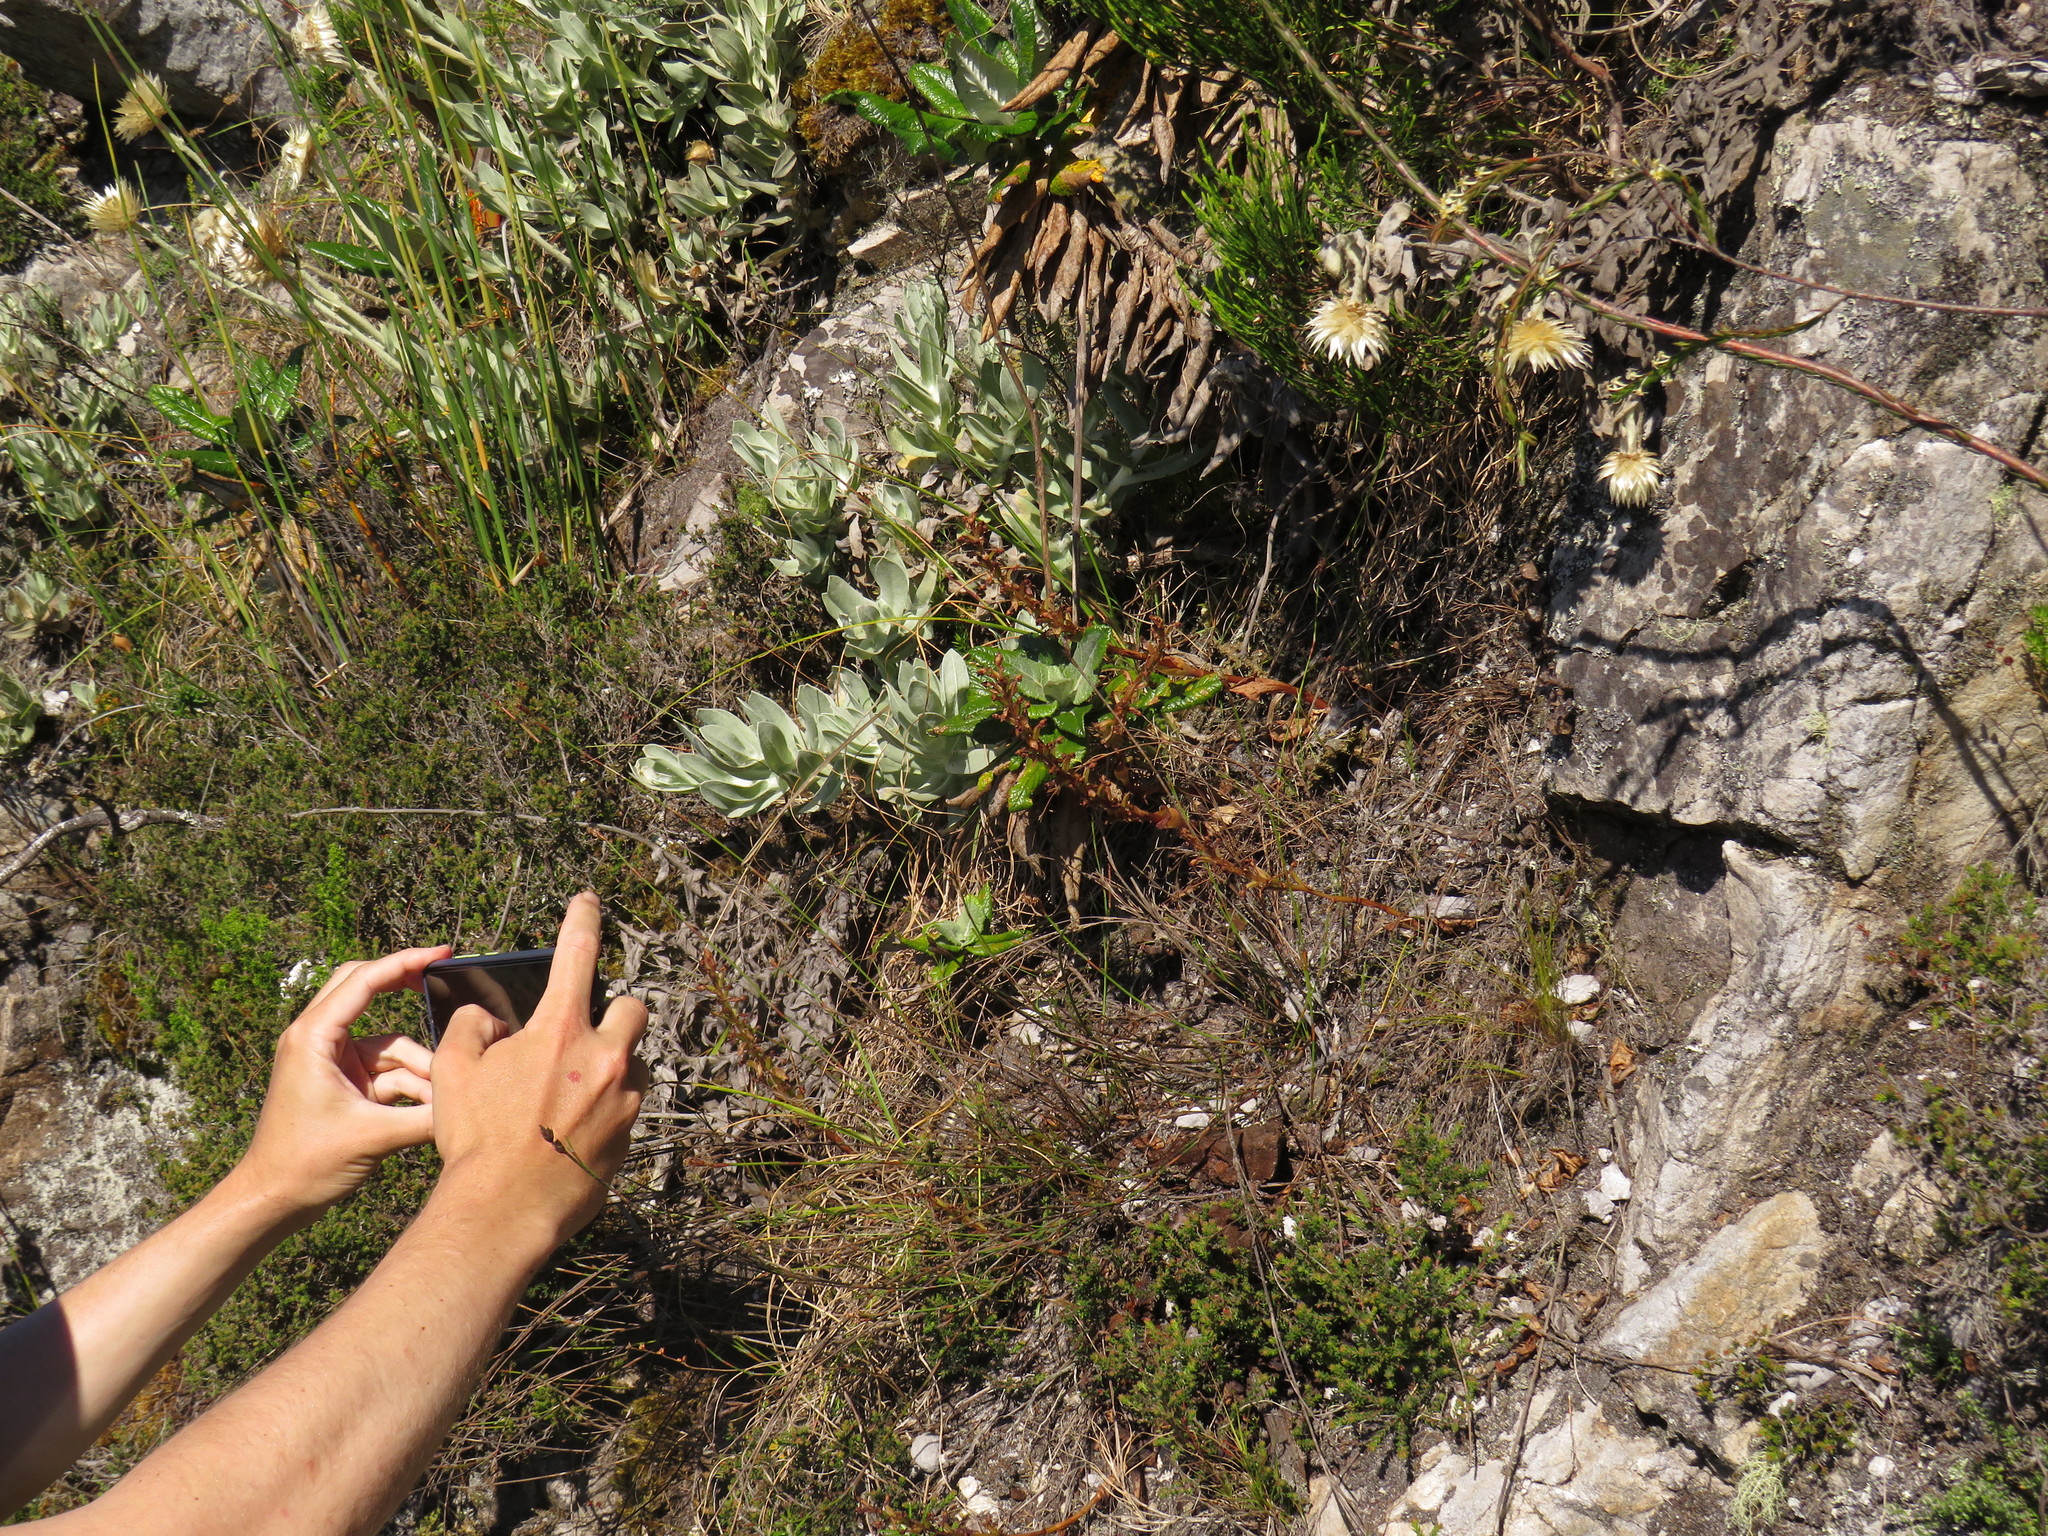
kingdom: Plantae
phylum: Tracheophyta
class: Liliopsida
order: Asparagales
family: Orchidaceae
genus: Satyrium
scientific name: Satyrium humile
